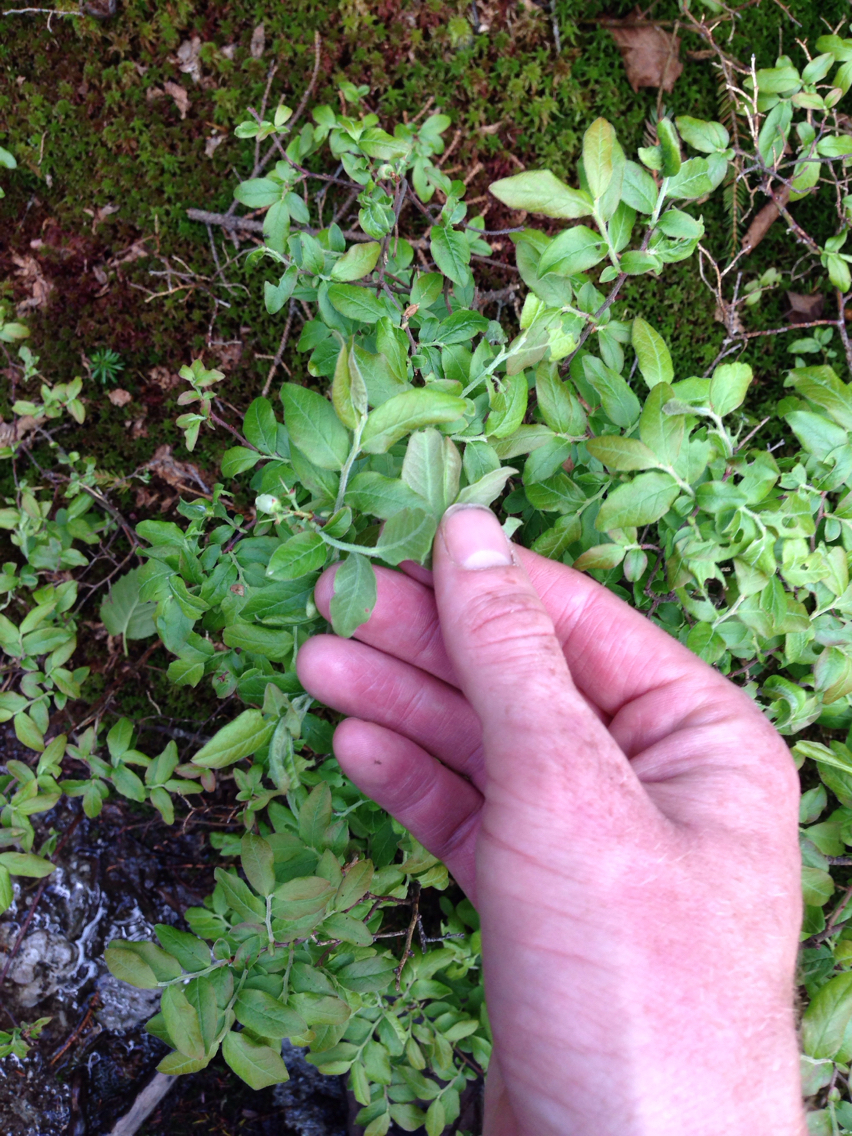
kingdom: Plantae
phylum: Tracheophyta
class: Magnoliopsida
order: Ericales
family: Ericaceae
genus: Vaccinium
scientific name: Vaccinium myrtilloides
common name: Canada blueberry
